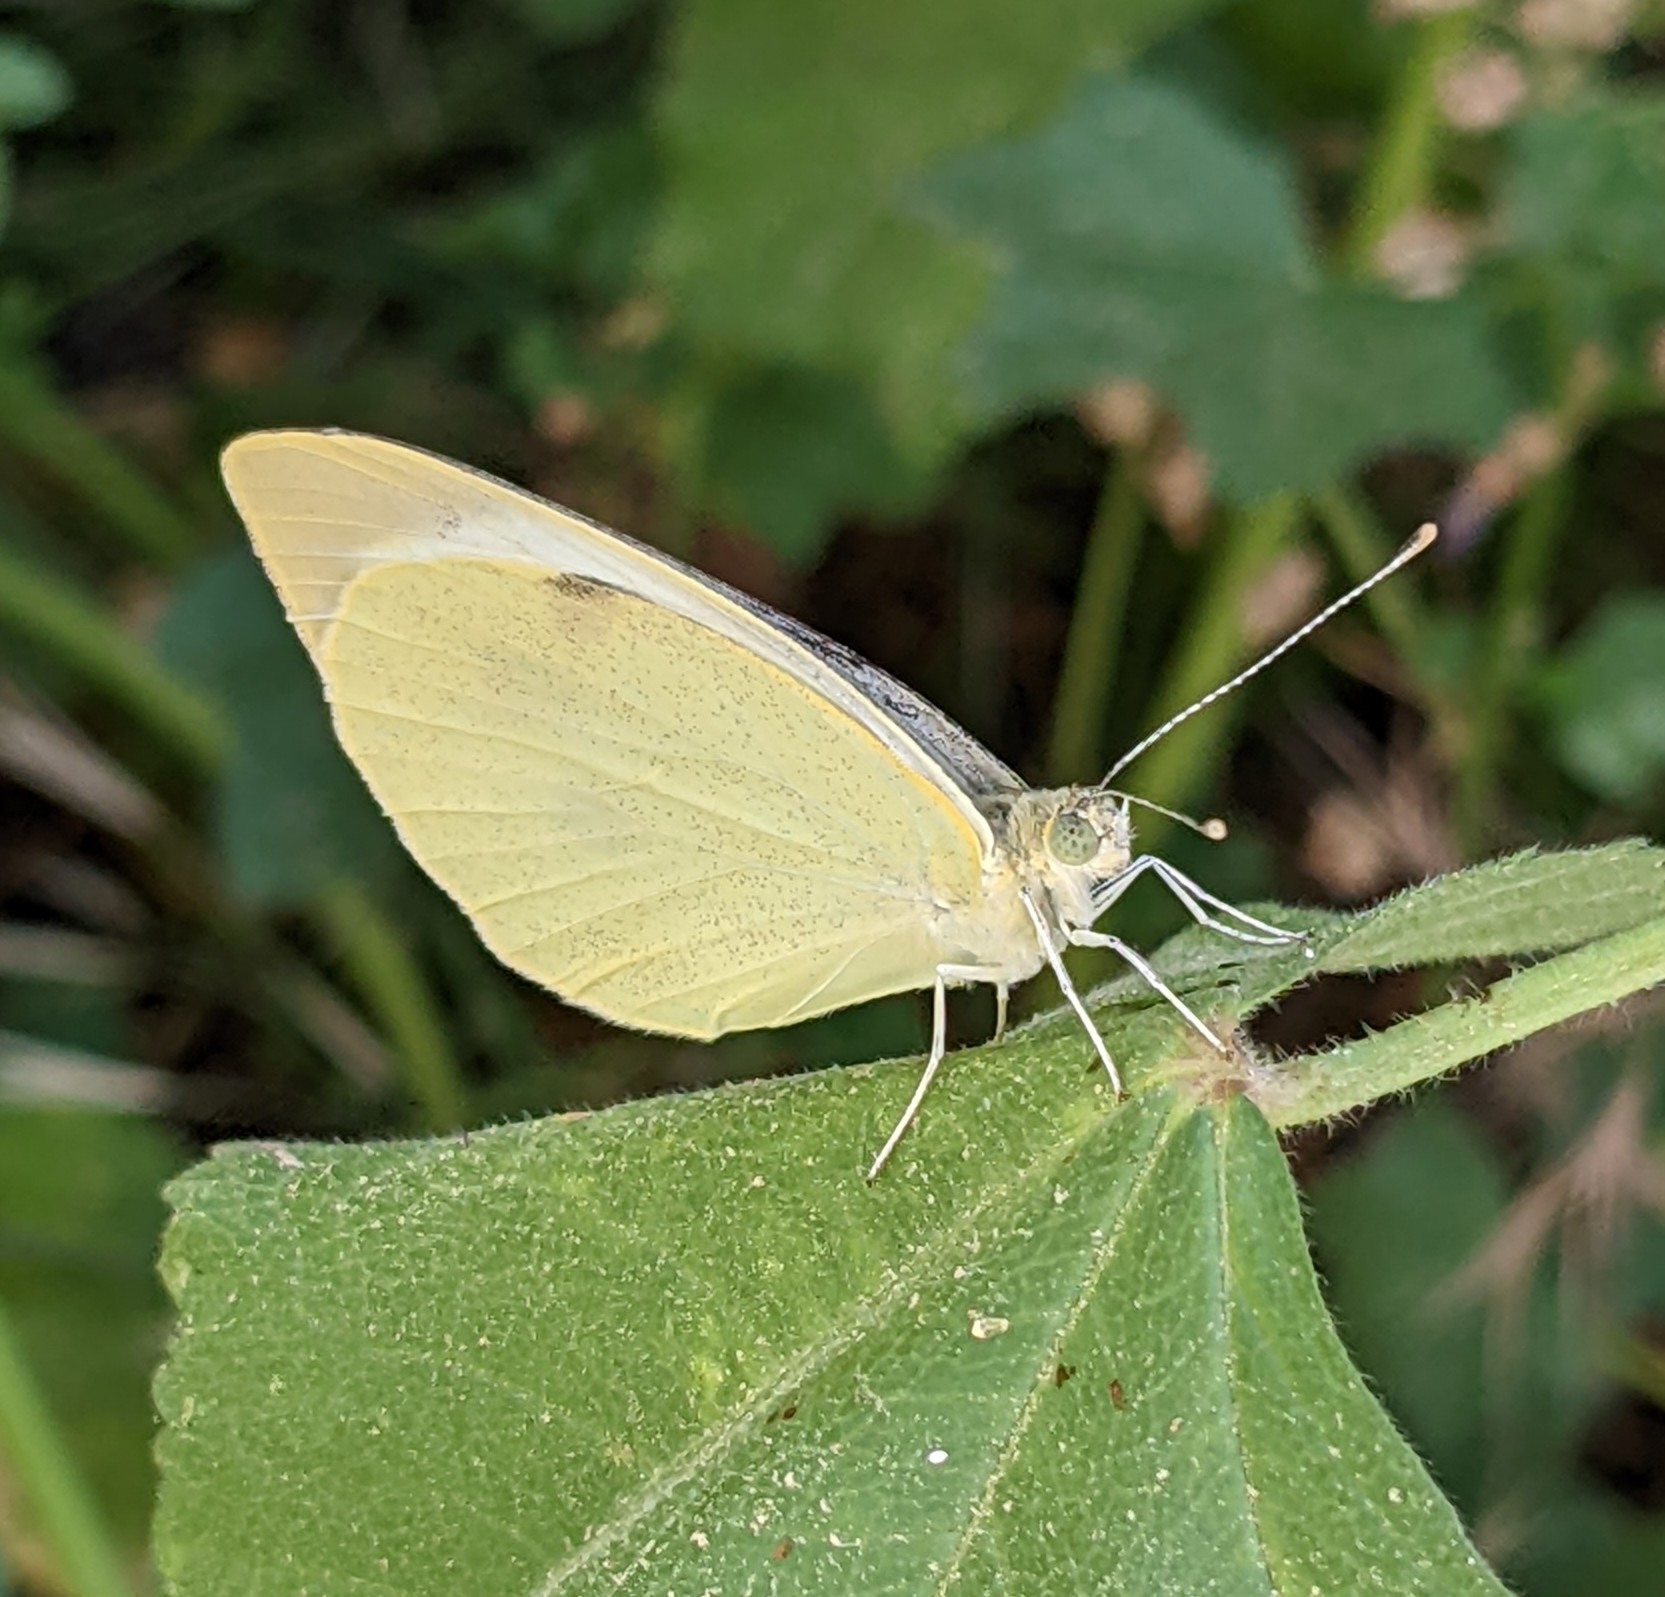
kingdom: Animalia
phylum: Arthropoda
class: Insecta
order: Lepidoptera
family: Pieridae
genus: Pieris
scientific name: Pieris brassicae
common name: Large white
